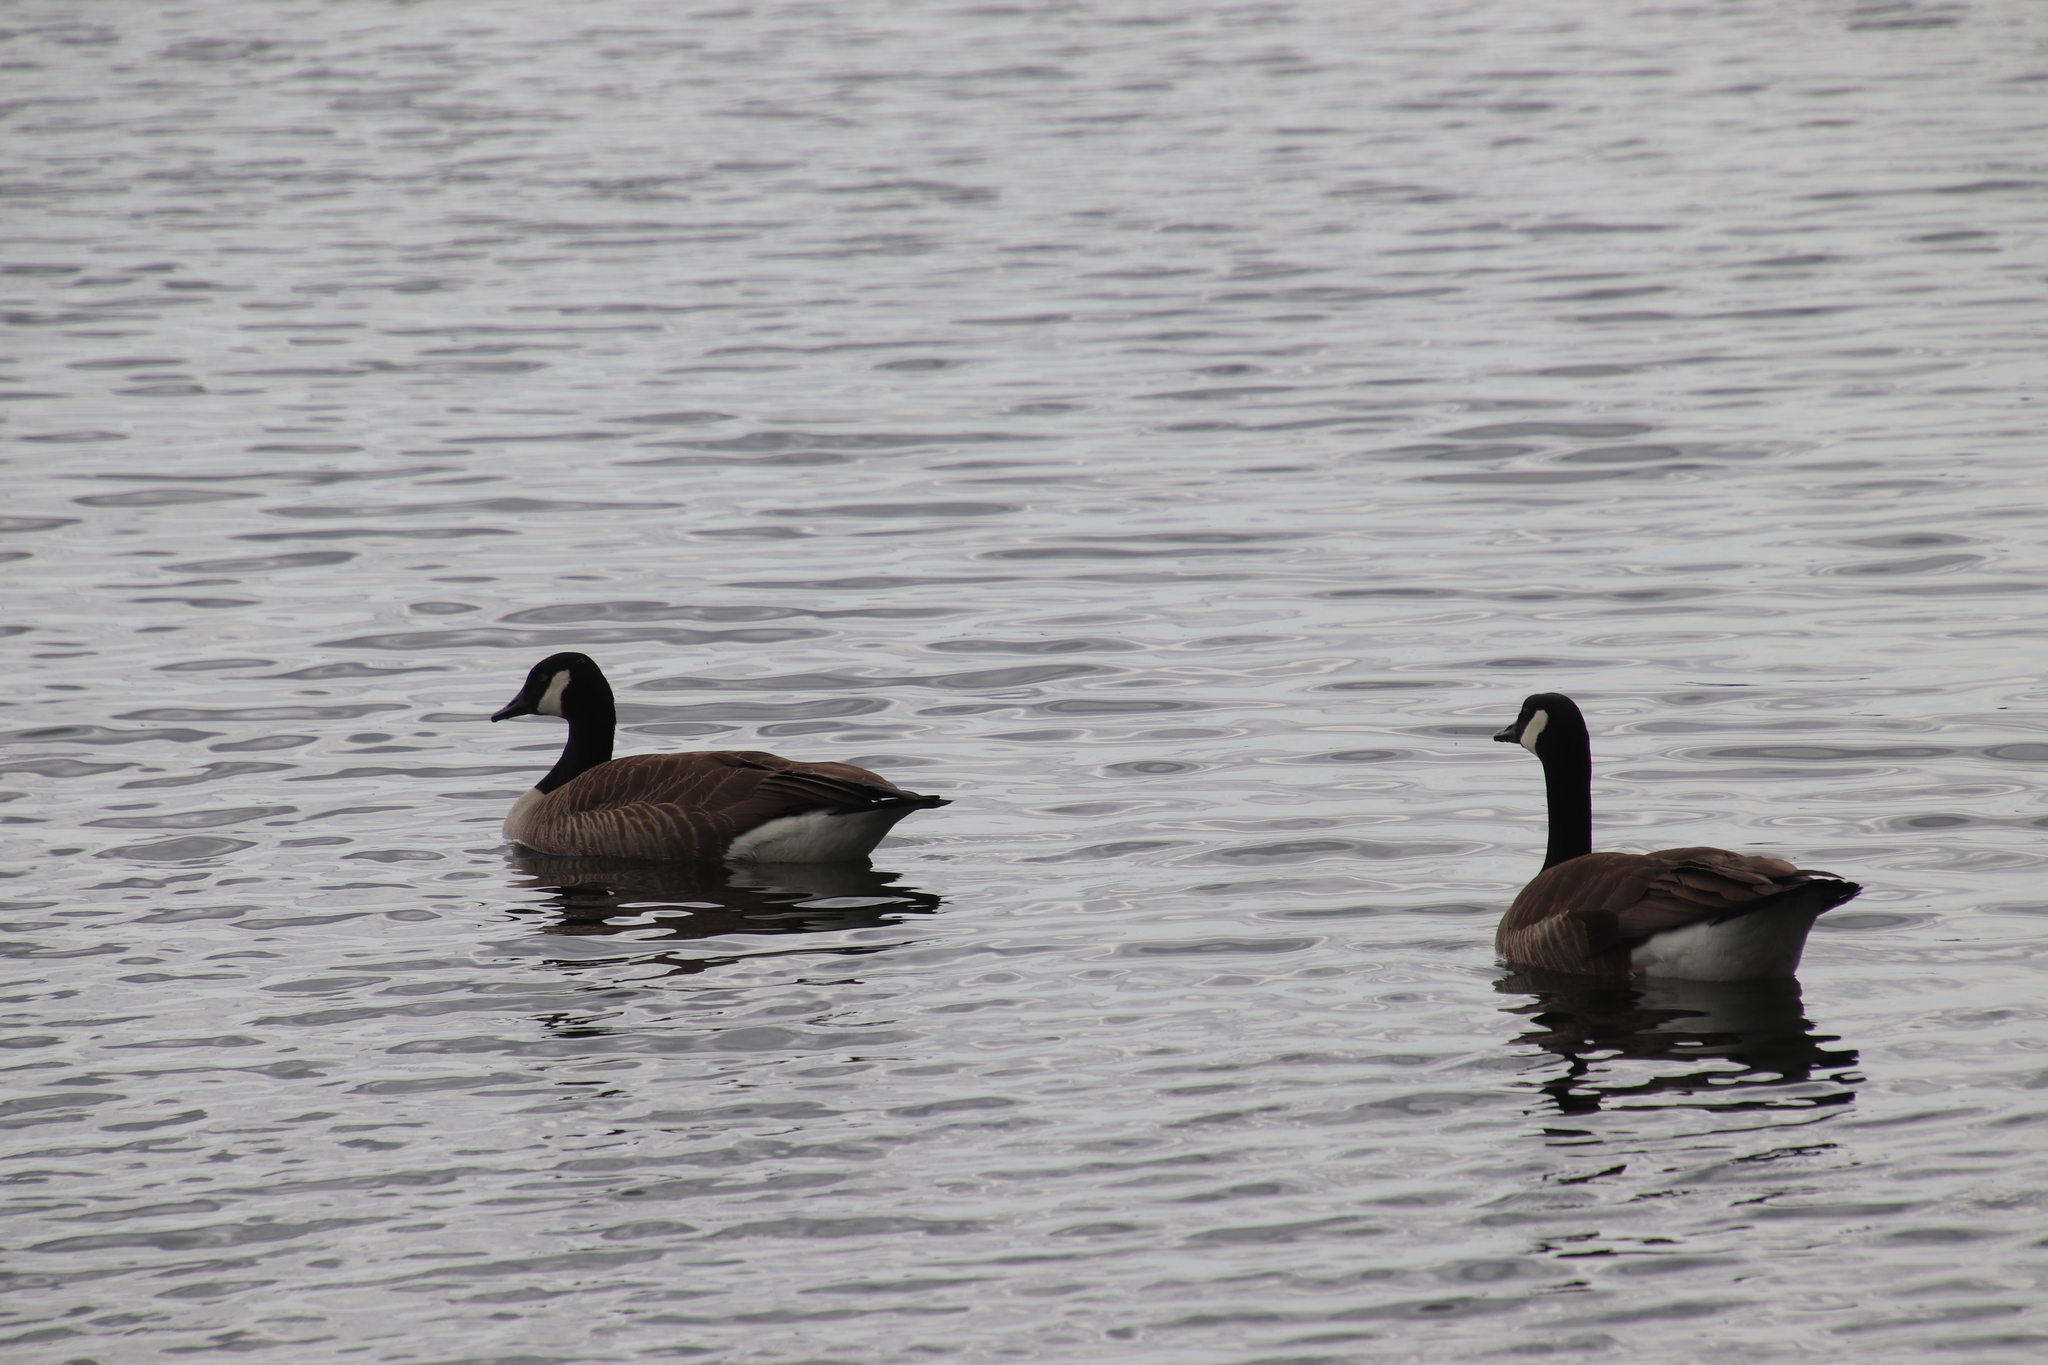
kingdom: Animalia
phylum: Chordata
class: Aves
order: Anseriformes
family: Anatidae
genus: Branta
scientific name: Branta canadensis
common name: Canada goose
